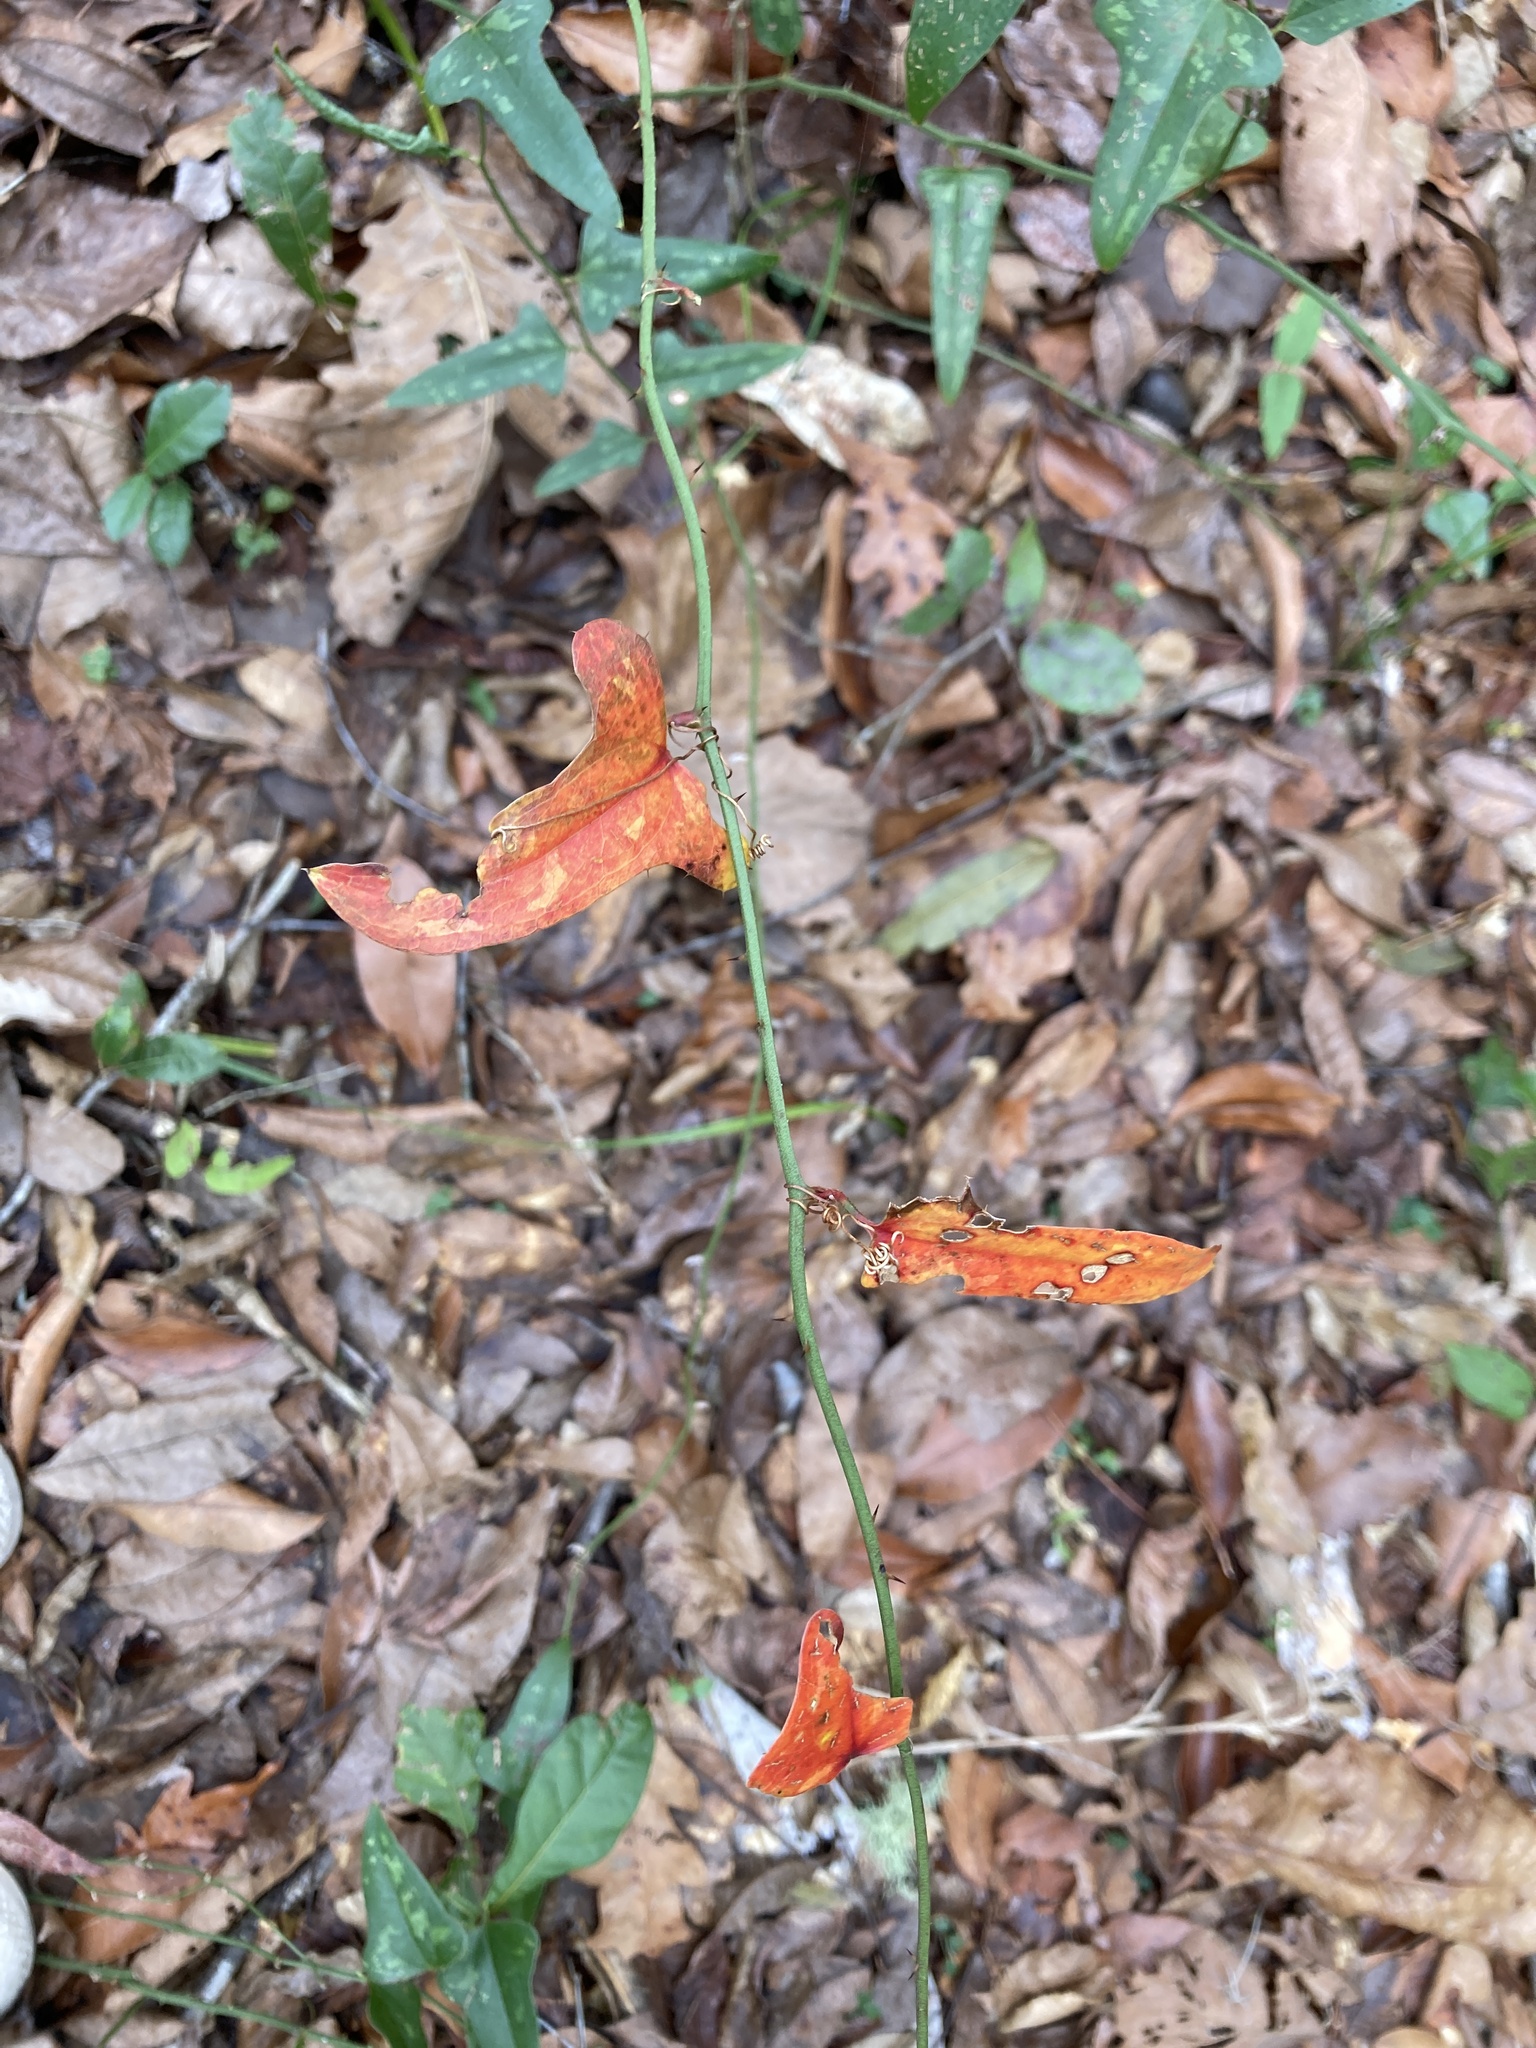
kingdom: Plantae
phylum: Tracheophyta
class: Liliopsida
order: Liliales
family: Smilacaceae
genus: Smilax
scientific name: Smilax bona-nox
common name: Catbrier
